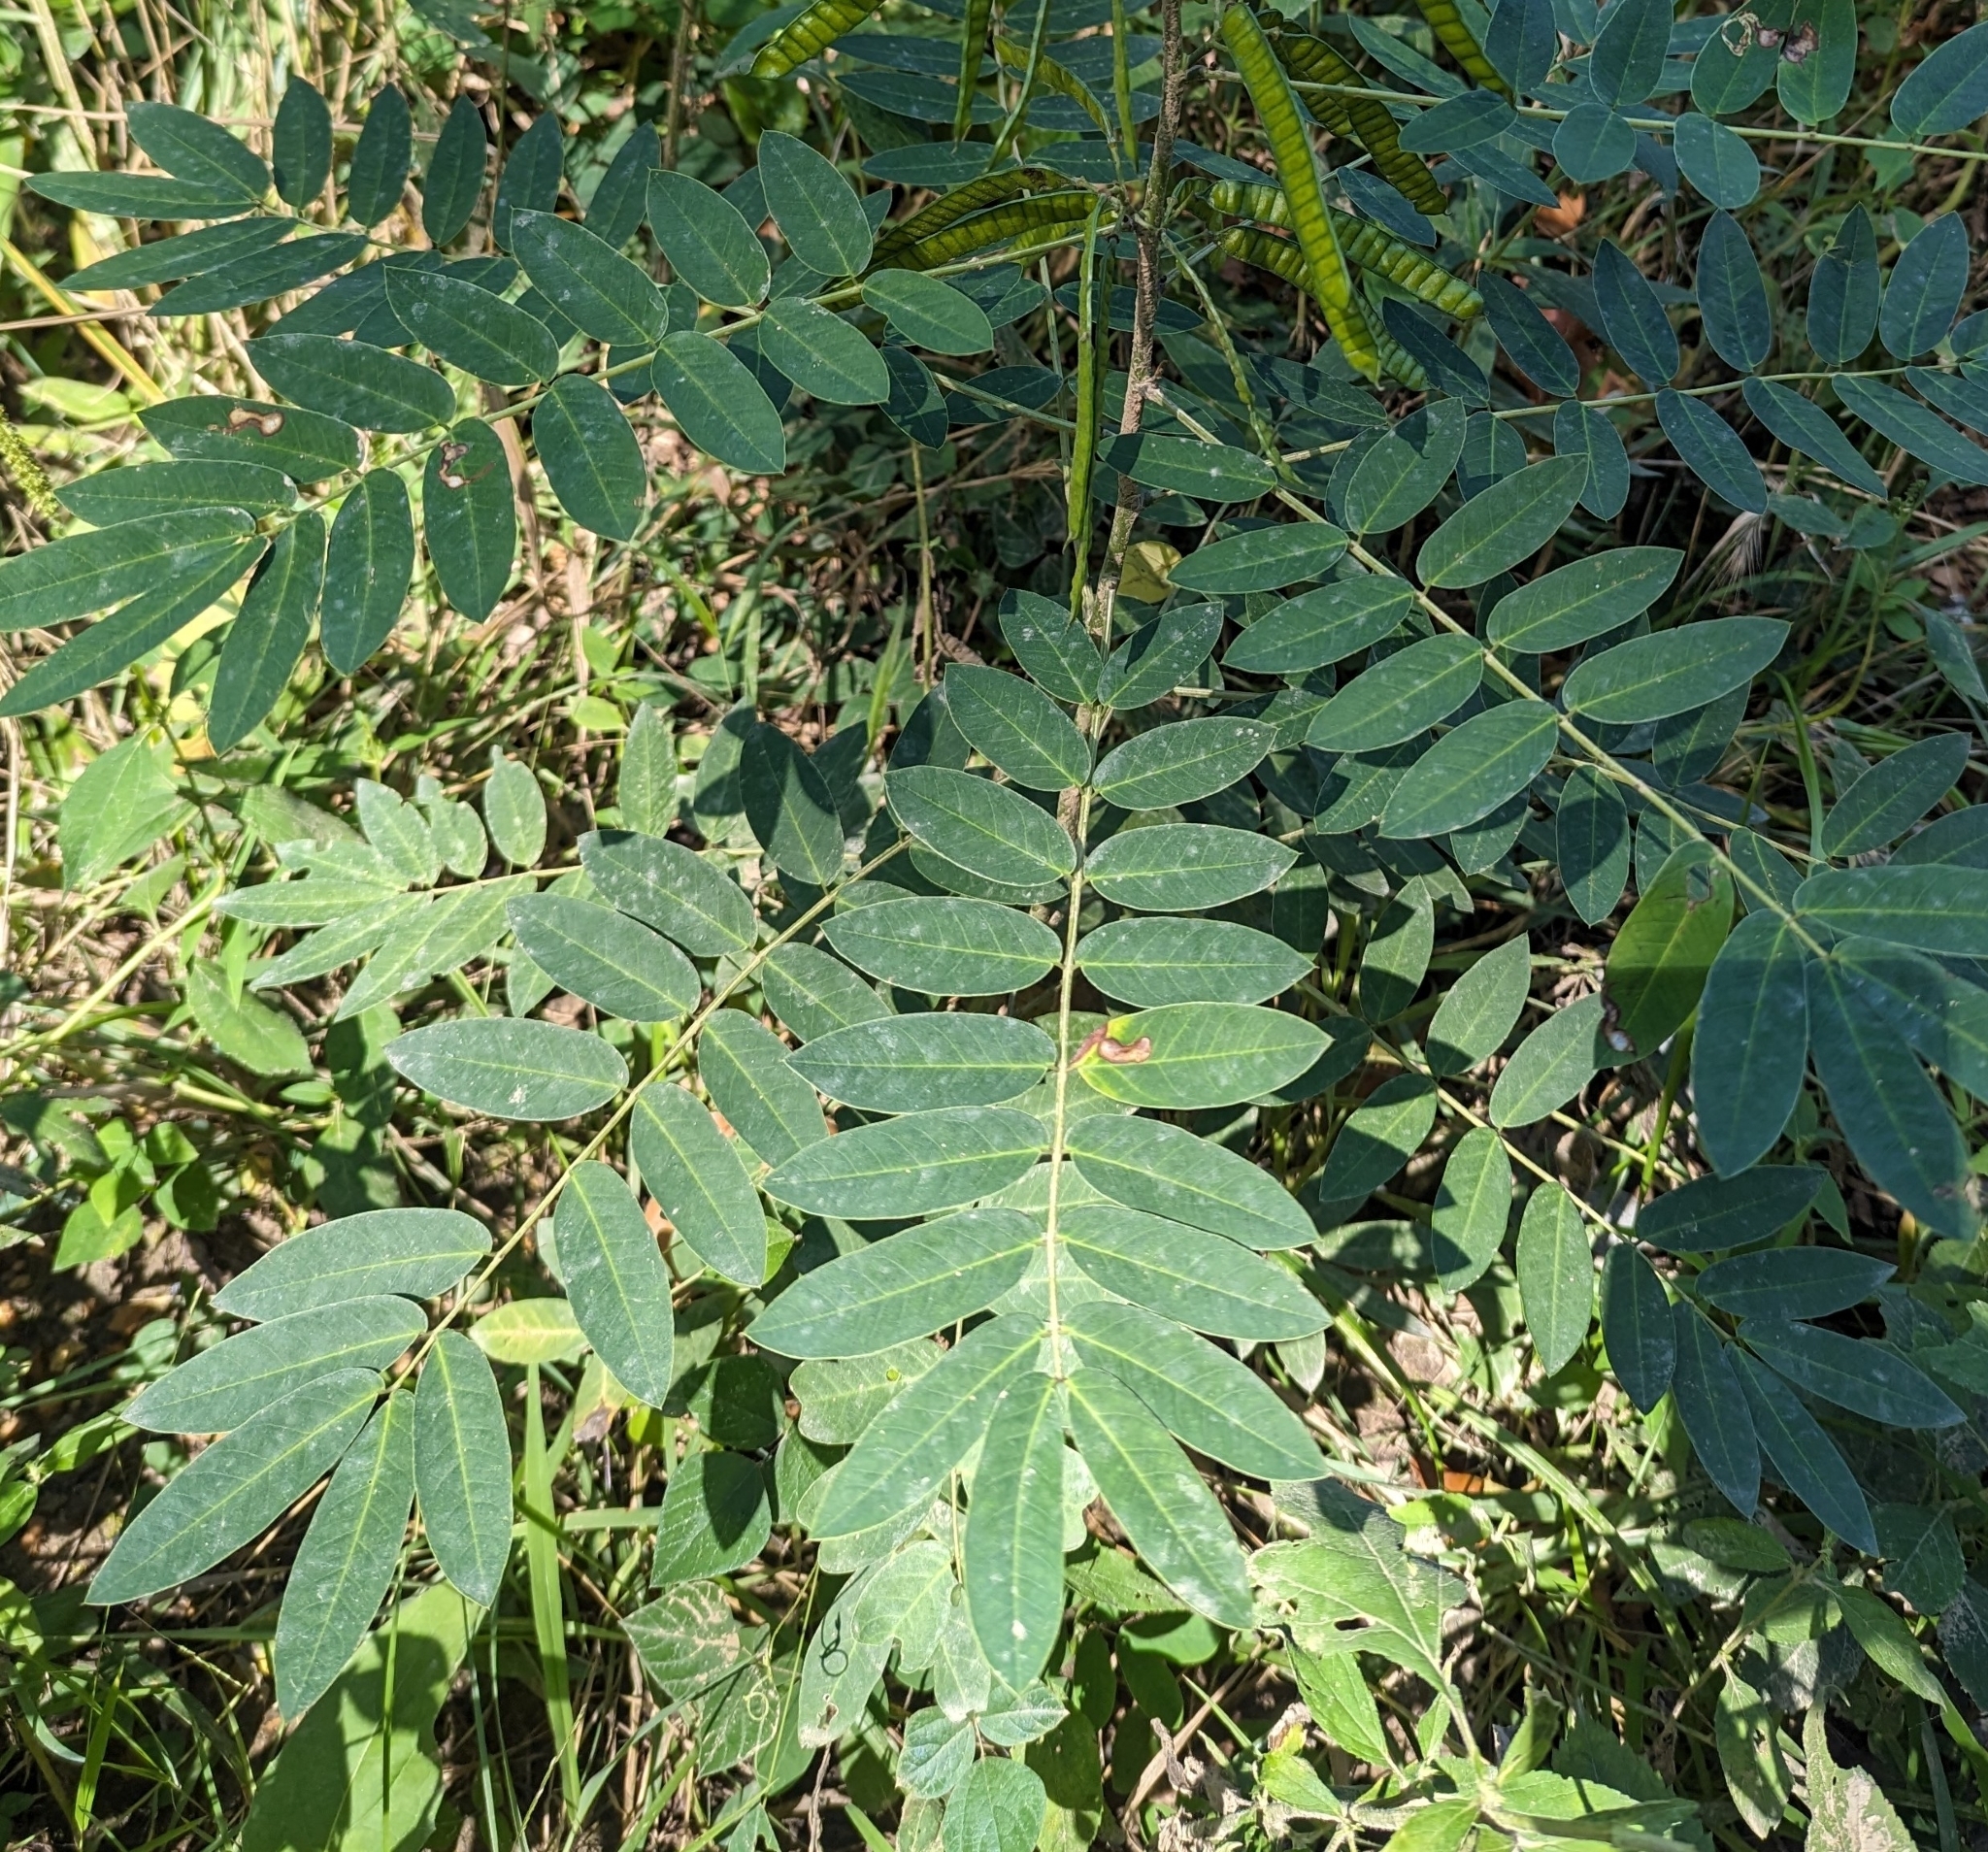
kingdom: Plantae
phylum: Tracheophyta
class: Magnoliopsida
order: Fabales
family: Fabaceae
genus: Senna
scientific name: Senna marilandica
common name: American senna
